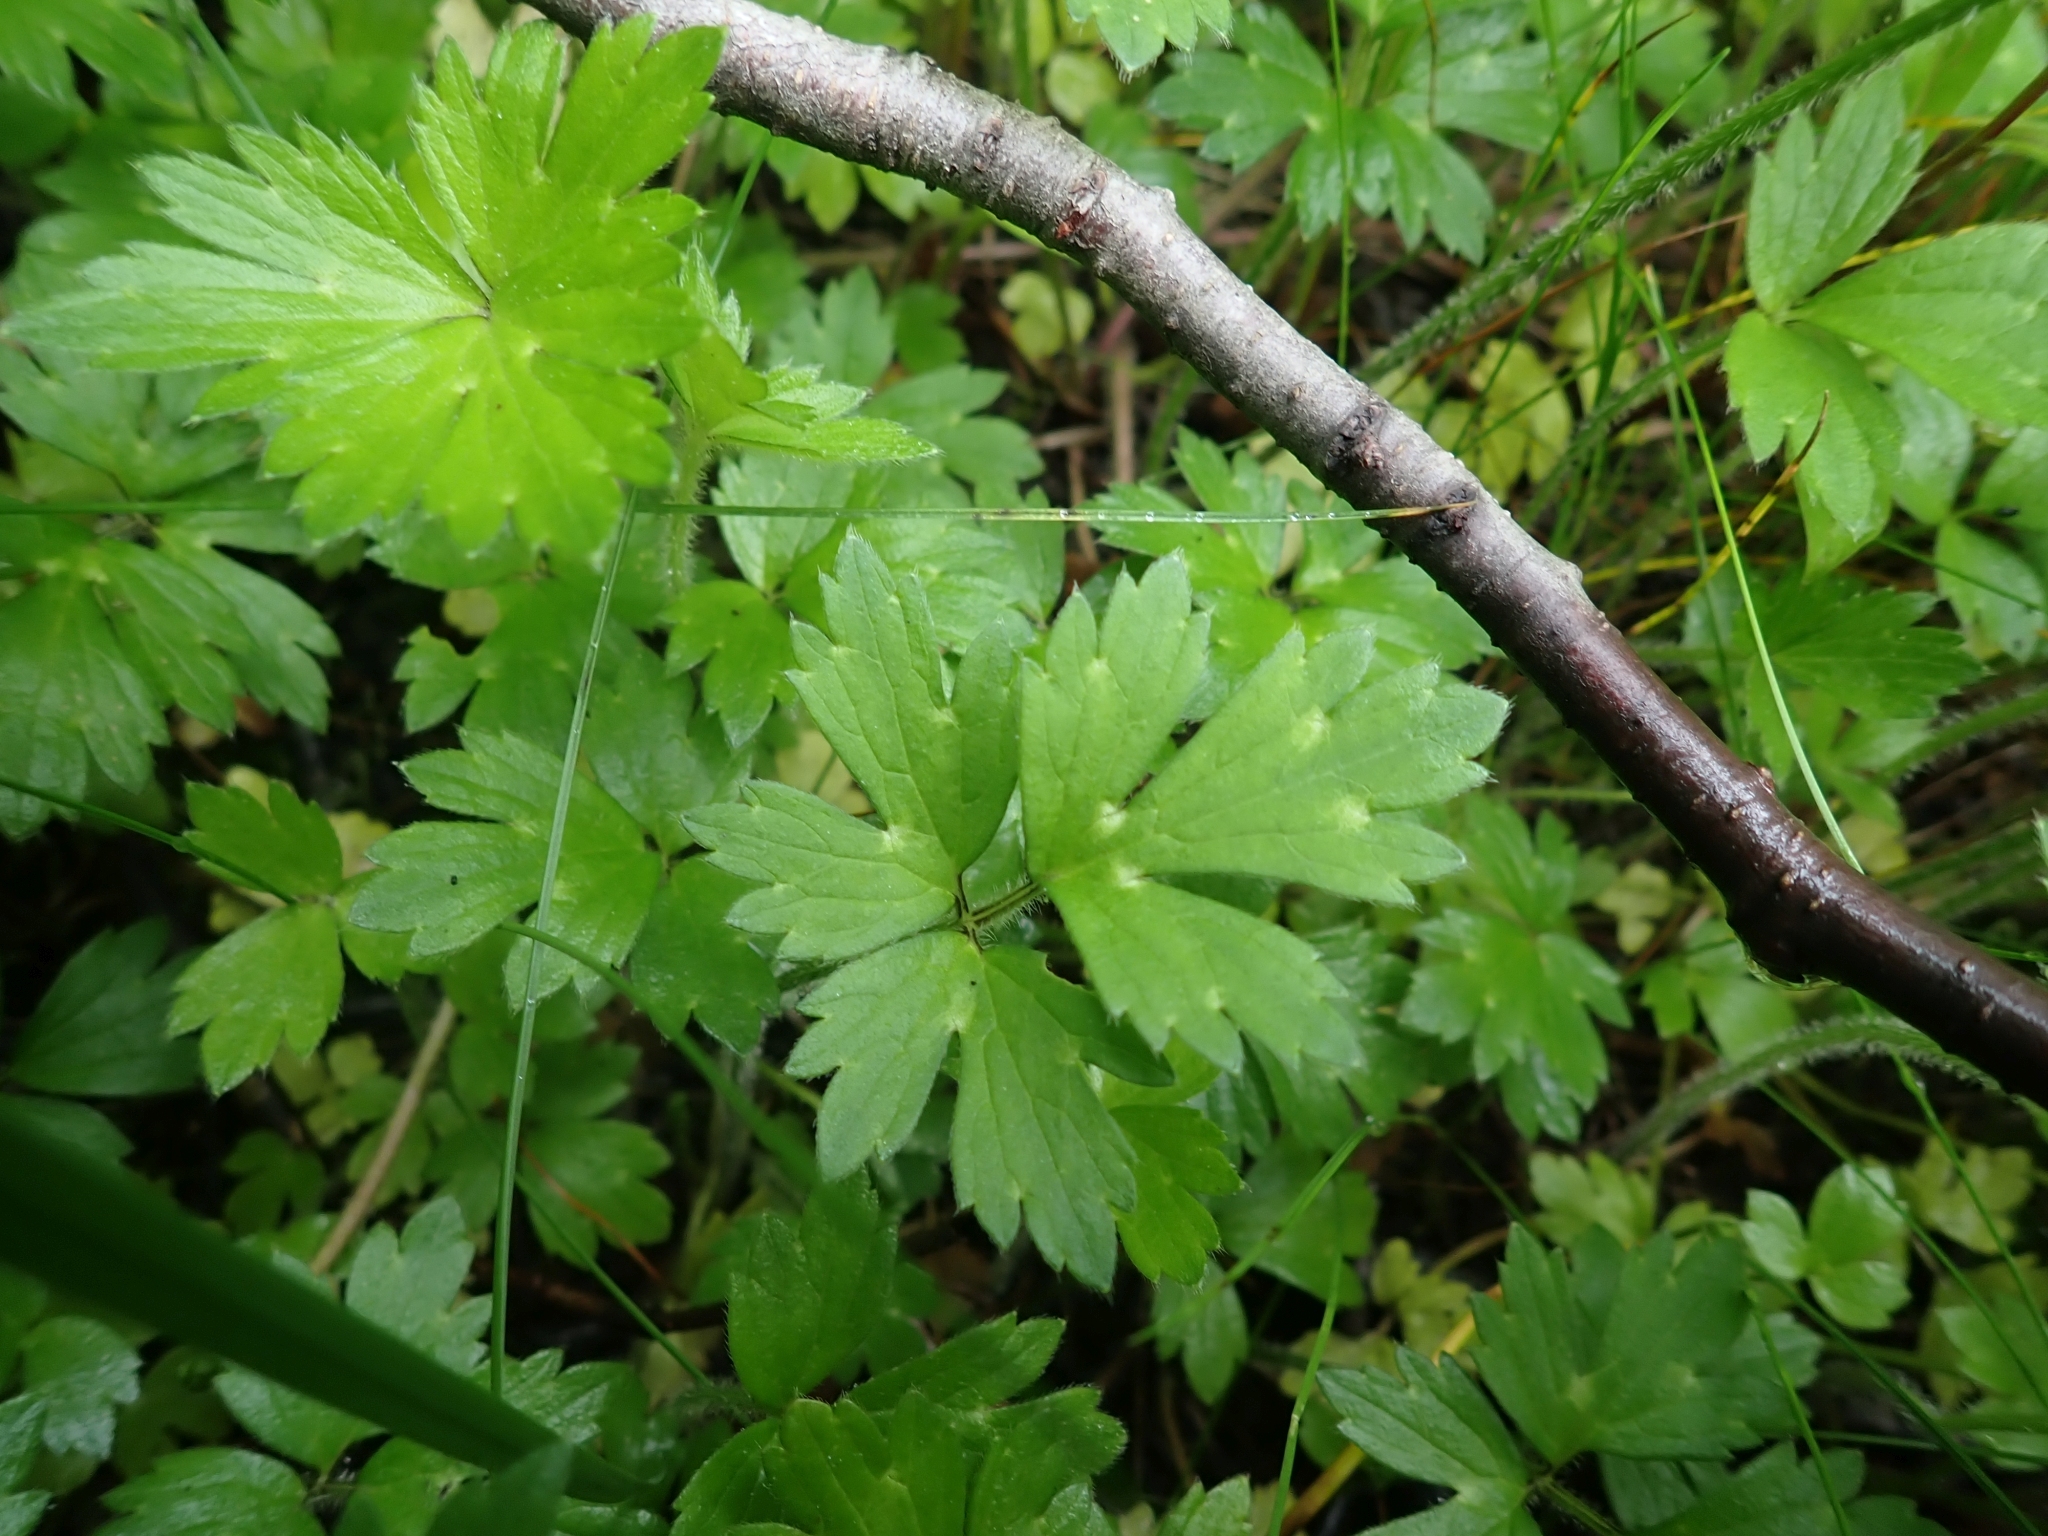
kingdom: Plantae
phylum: Tracheophyta
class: Magnoliopsida
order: Ranunculales
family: Ranunculaceae
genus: Ranunculus
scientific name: Ranunculus repens
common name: Creeping buttercup
